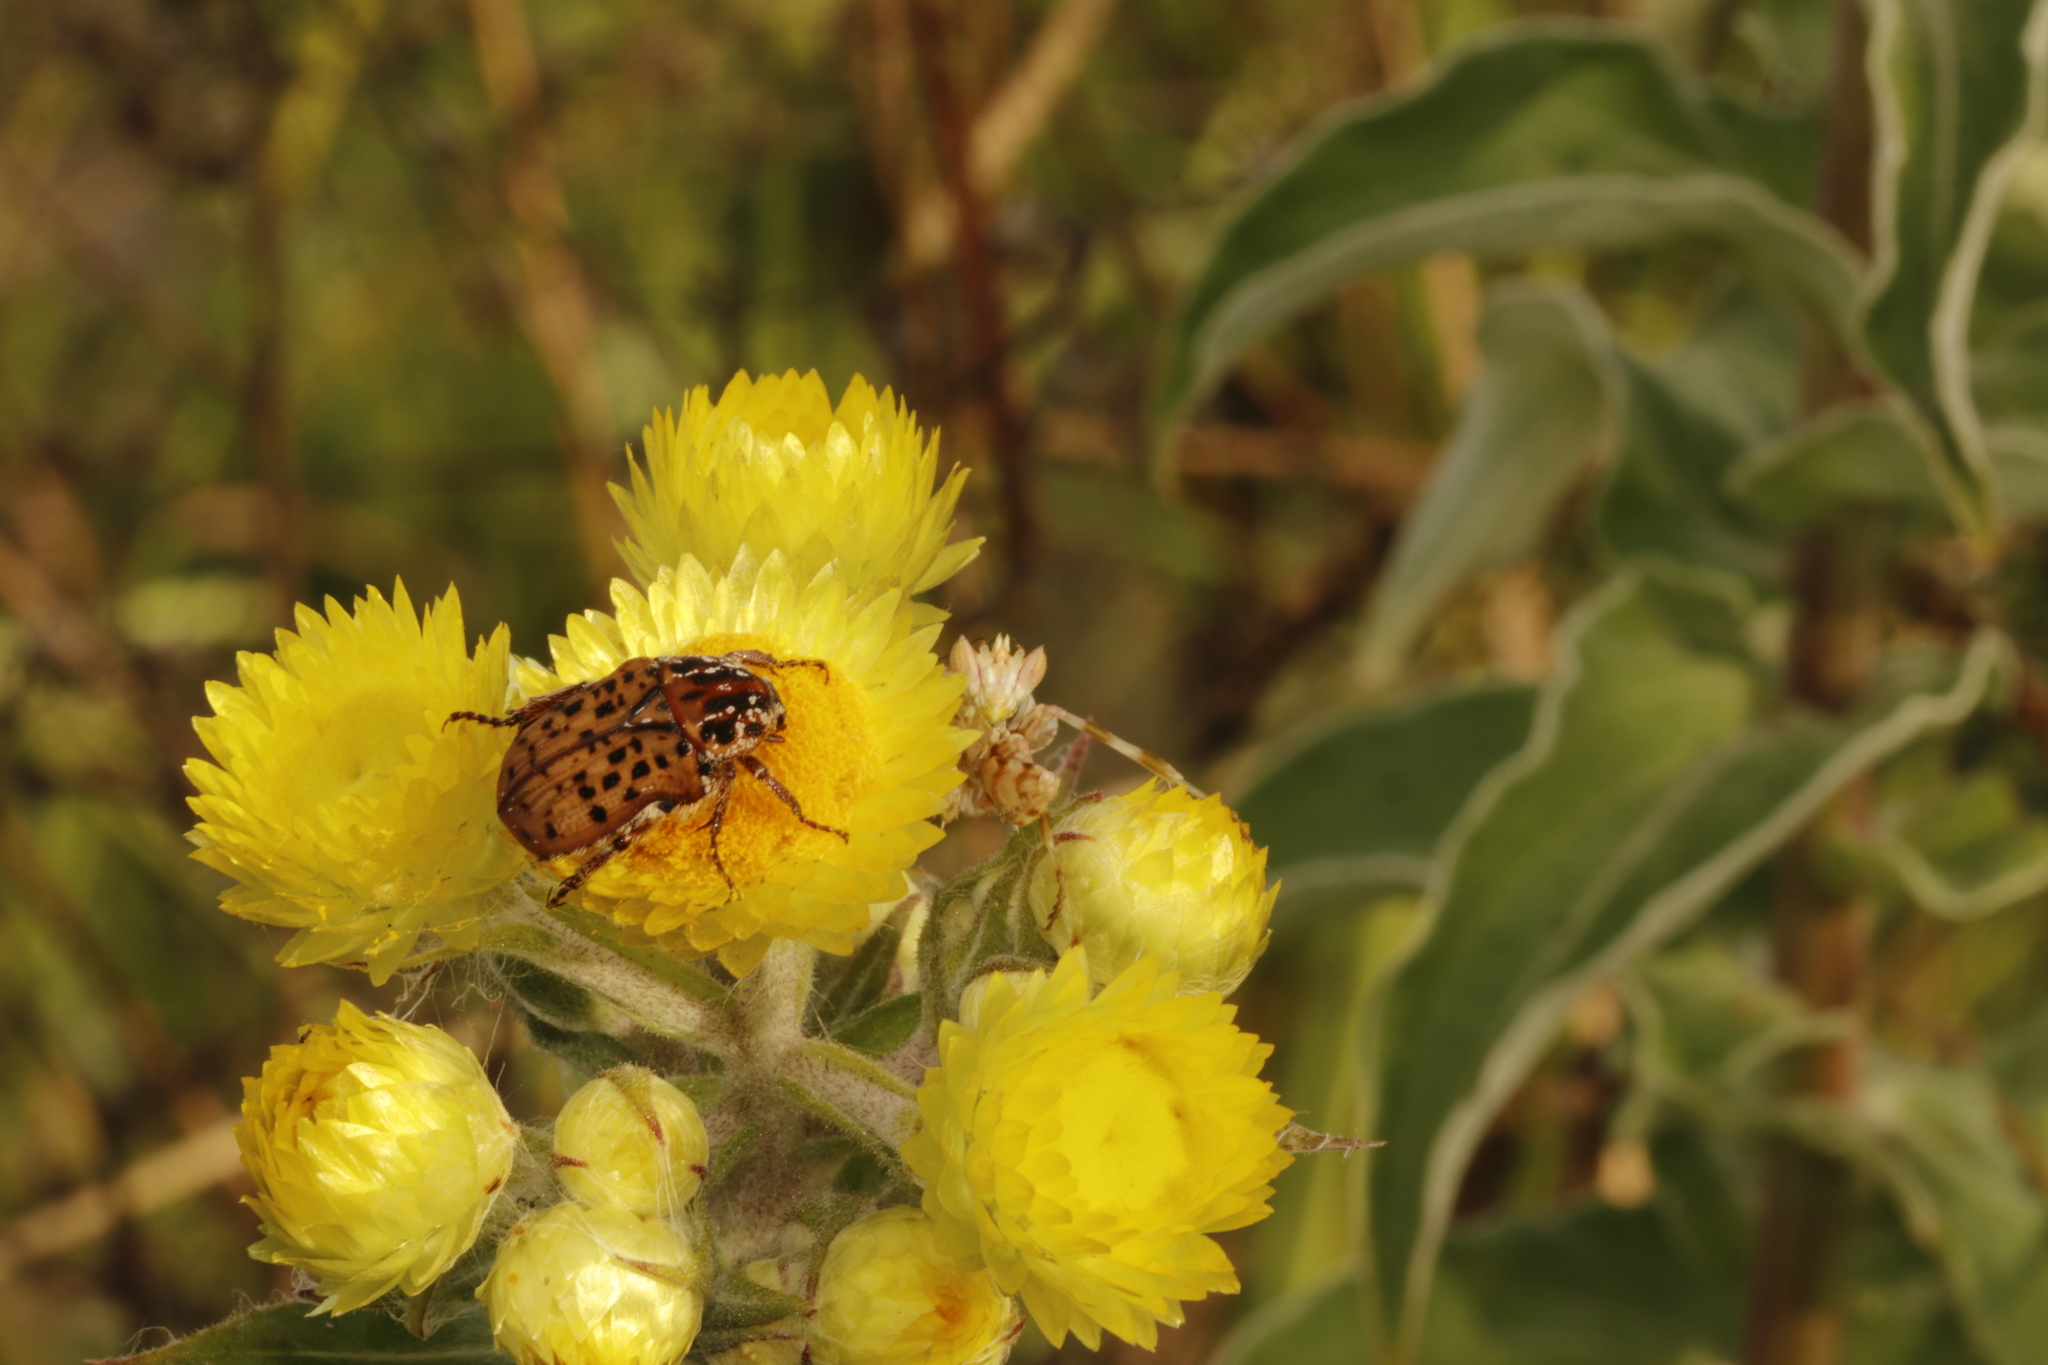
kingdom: Animalia
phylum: Arthropoda
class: Insecta
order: Coleoptera
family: Scarabaeidae
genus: Atrichelaphinis
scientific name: Atrichelaphinis tigrina
